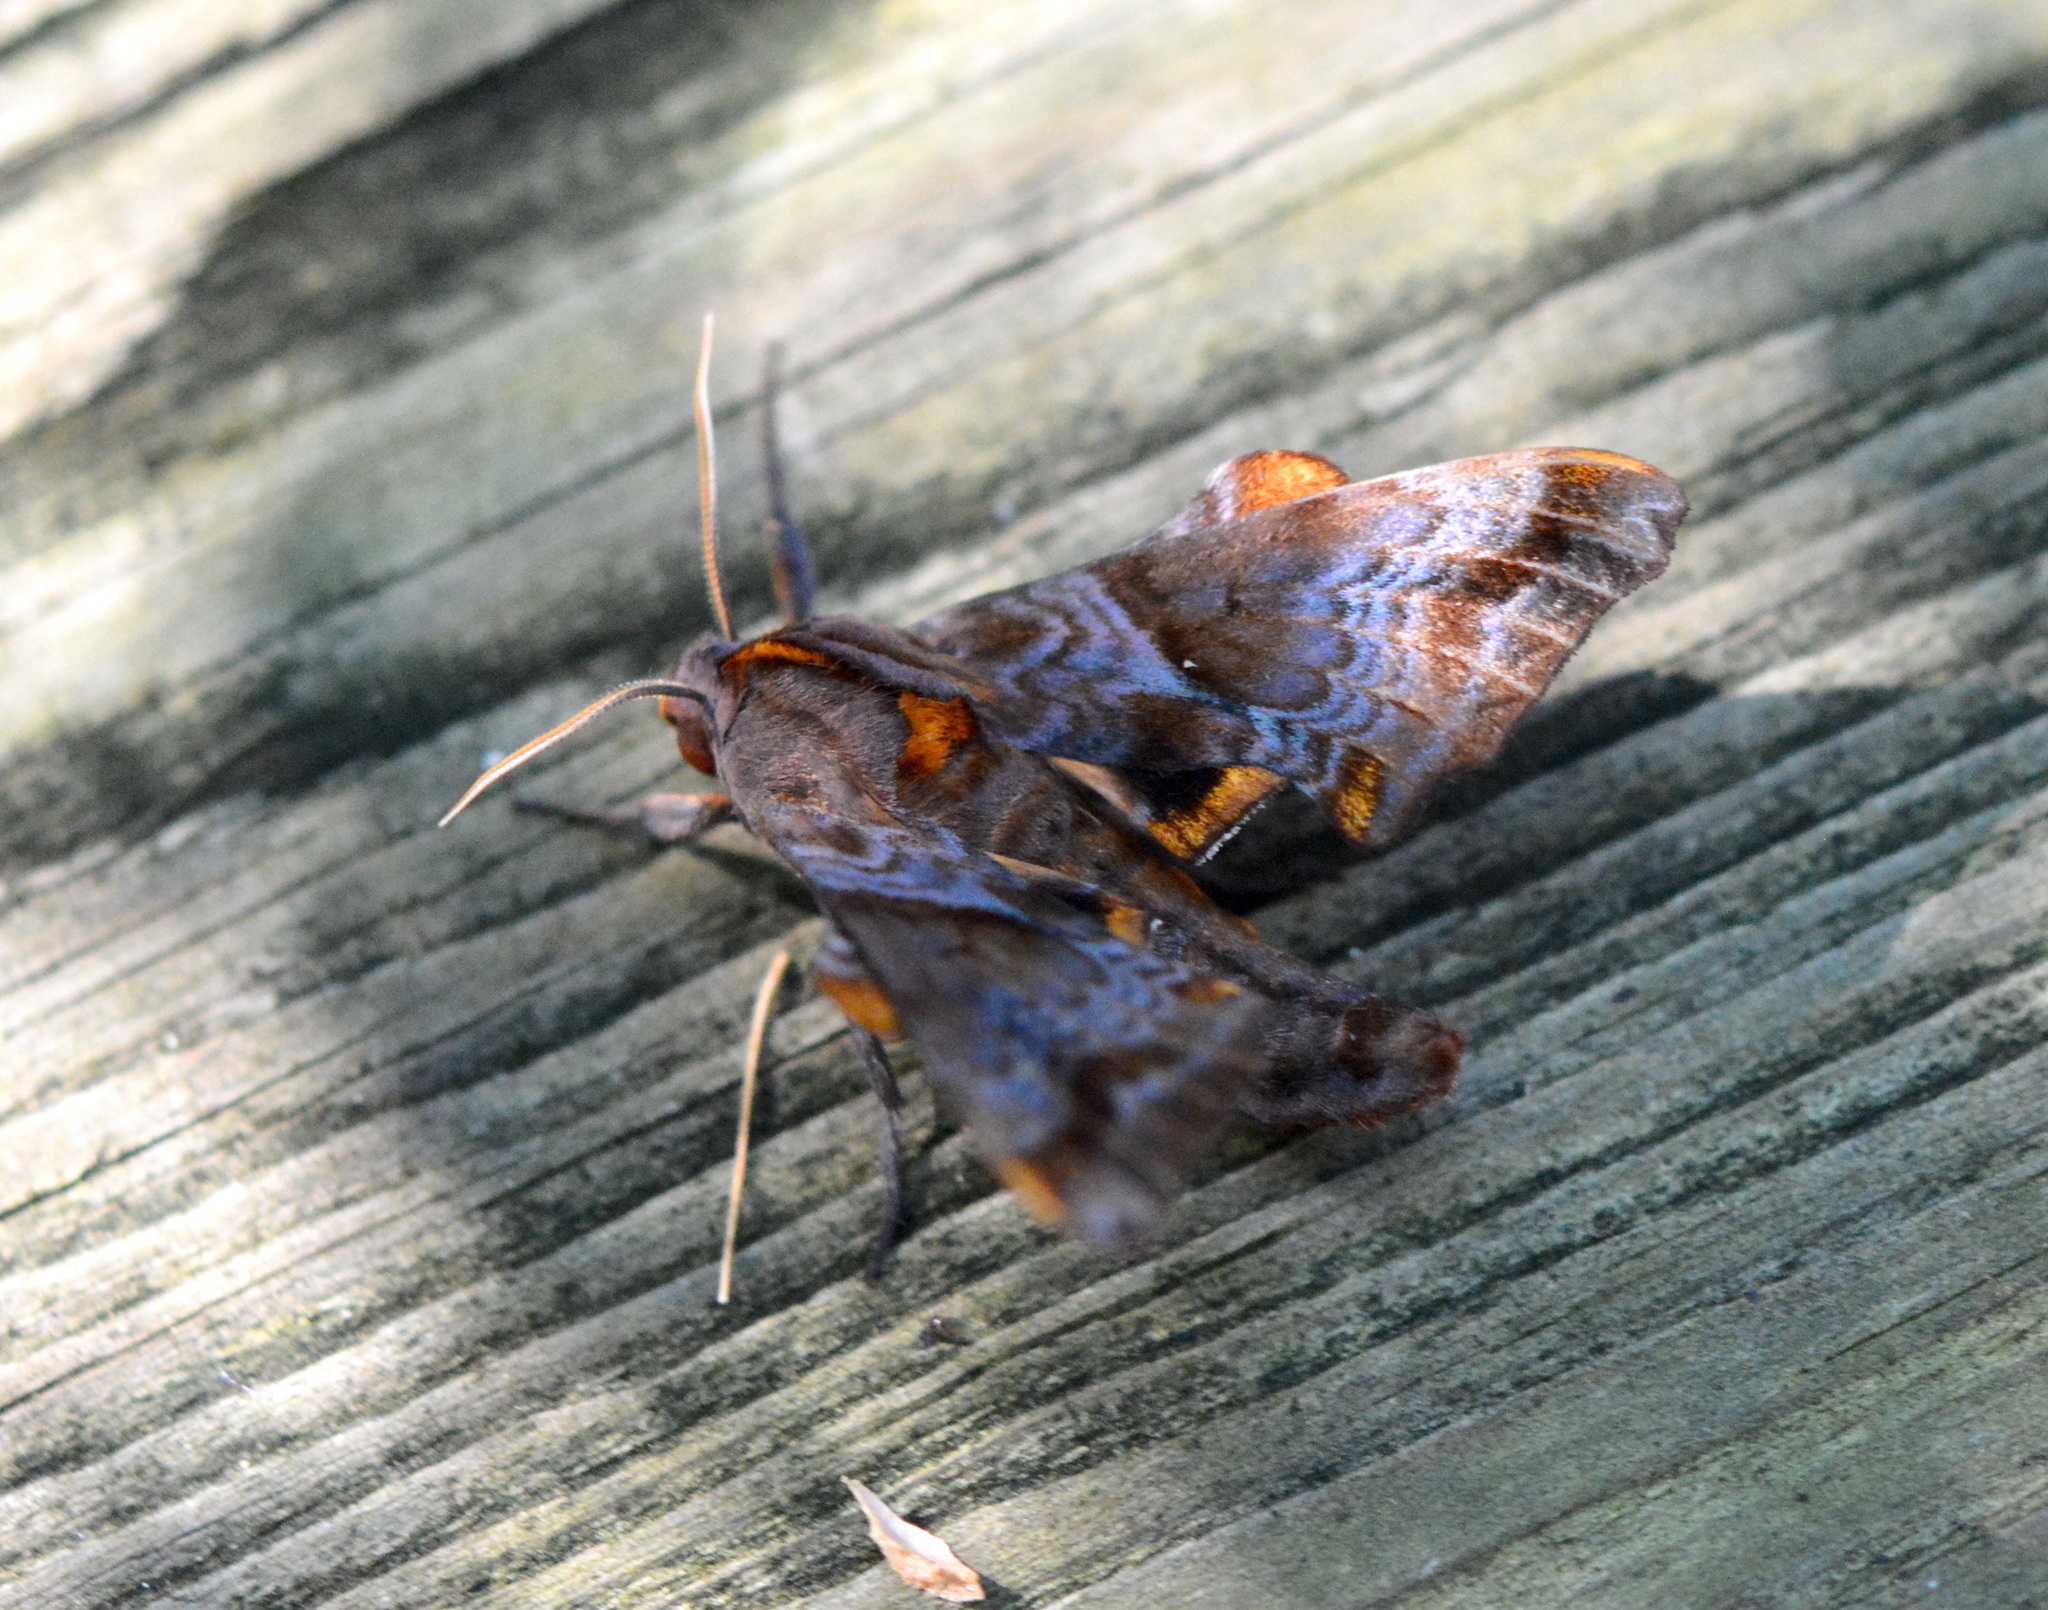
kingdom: Animalia
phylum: Arthropoda
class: Insecta
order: Lepidoptera
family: Sphingidae
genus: Paonias
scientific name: Paonias myops
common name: Small-eyed sphinx
